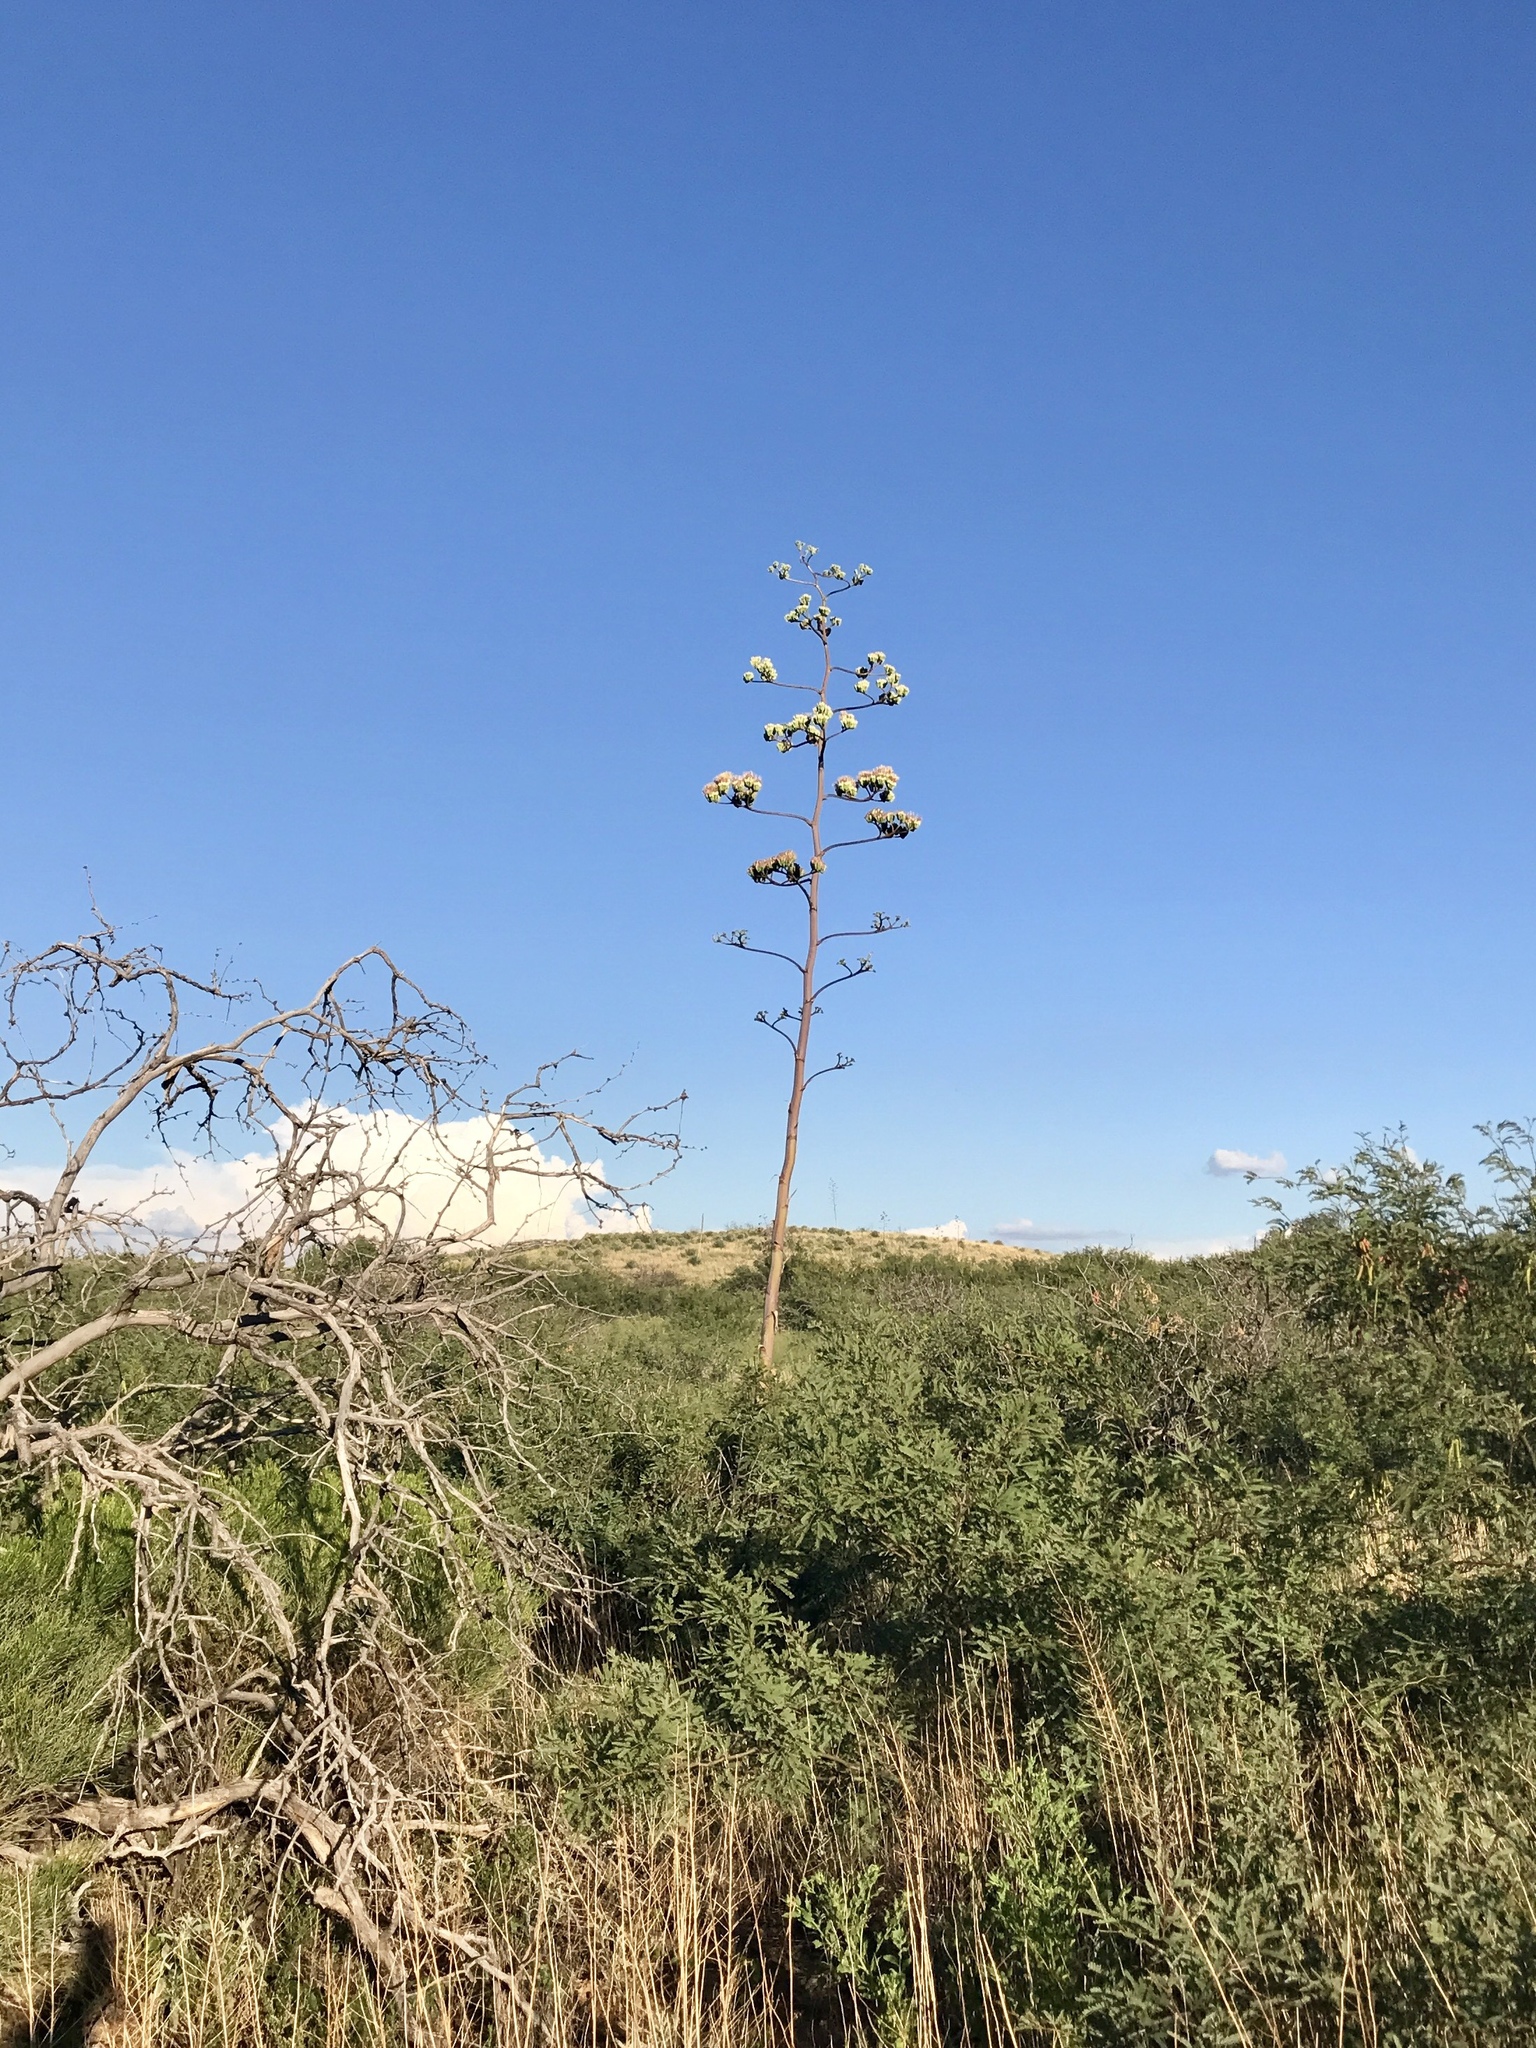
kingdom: Plantae
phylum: Tracheophyta
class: Liliopsida
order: Asparagales
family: Asparagaceae
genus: Agave
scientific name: Agave palmeri
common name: Palmer agave
